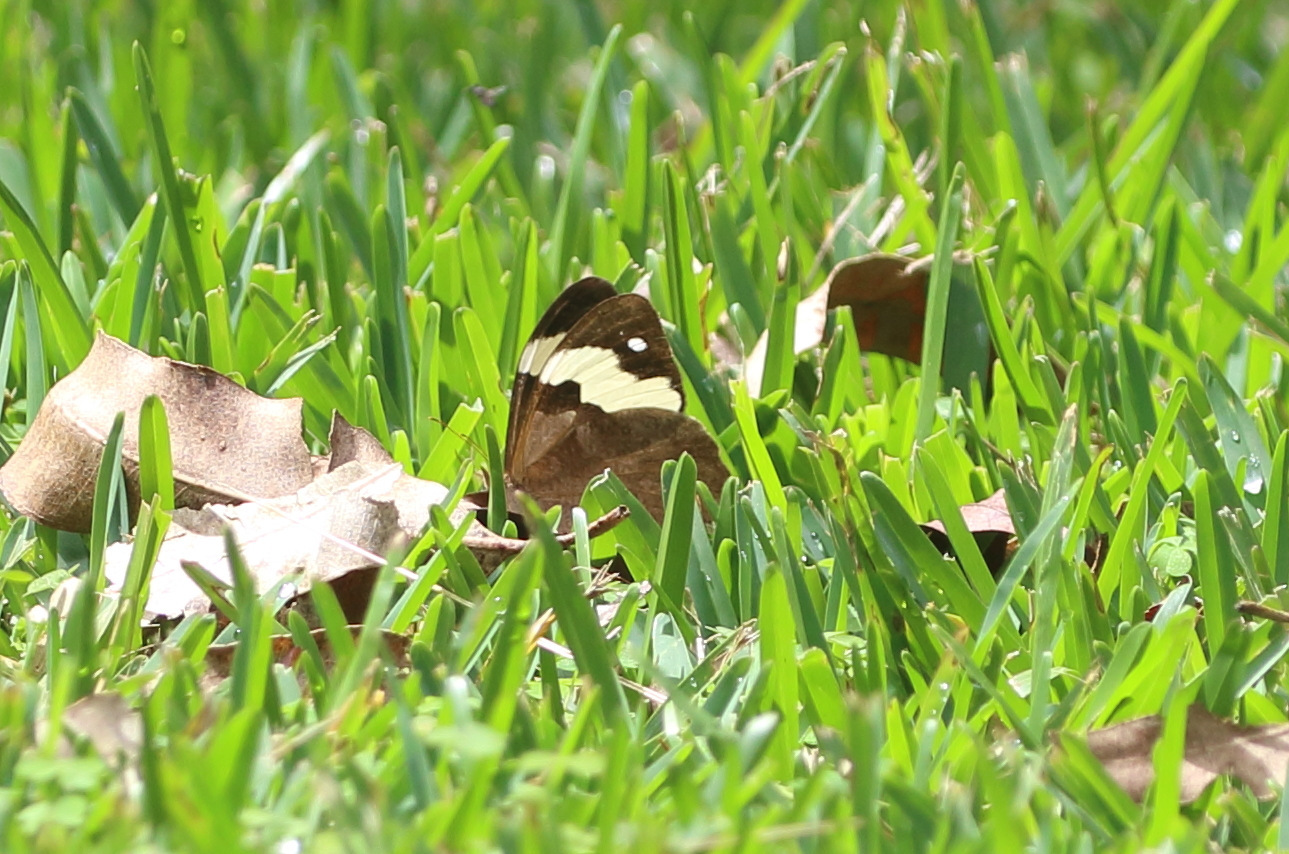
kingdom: Animalia
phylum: Arthropoda
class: Insecta
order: Lepidoptera
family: Nymphalidae
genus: Heteronympha
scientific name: Heteronympha mirifica
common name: Wonder brown
